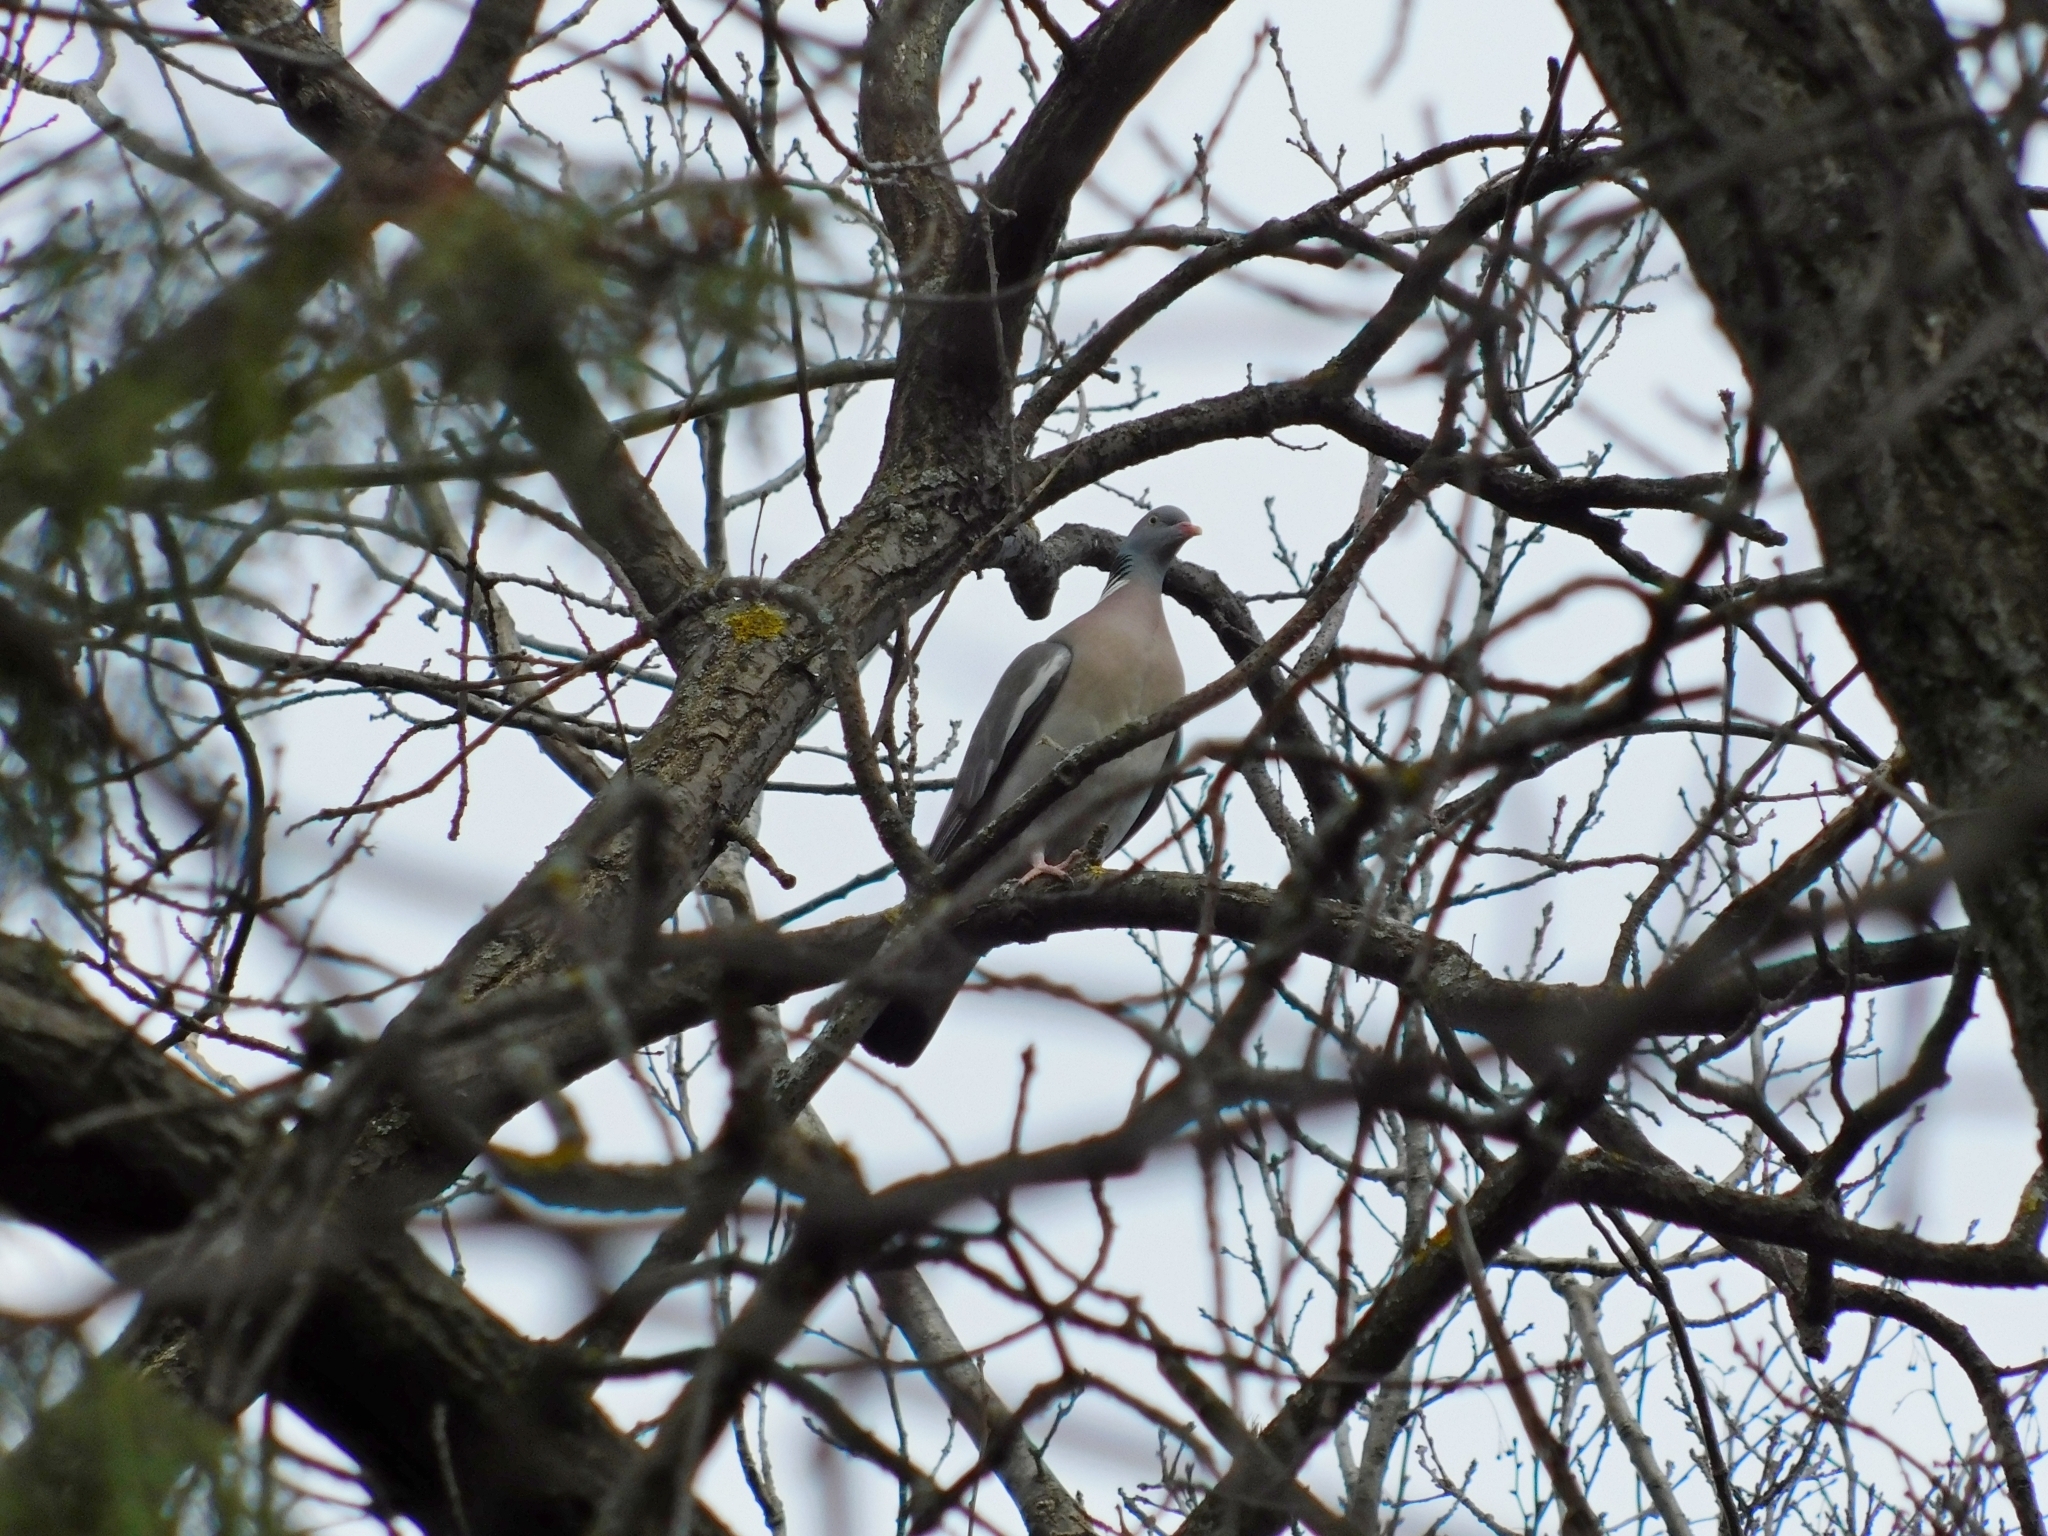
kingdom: Animalia
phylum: Chordata
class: Aves
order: Columbiformes
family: Columbidae
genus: Columba
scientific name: Columba palumbus
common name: Common wood pigeon
